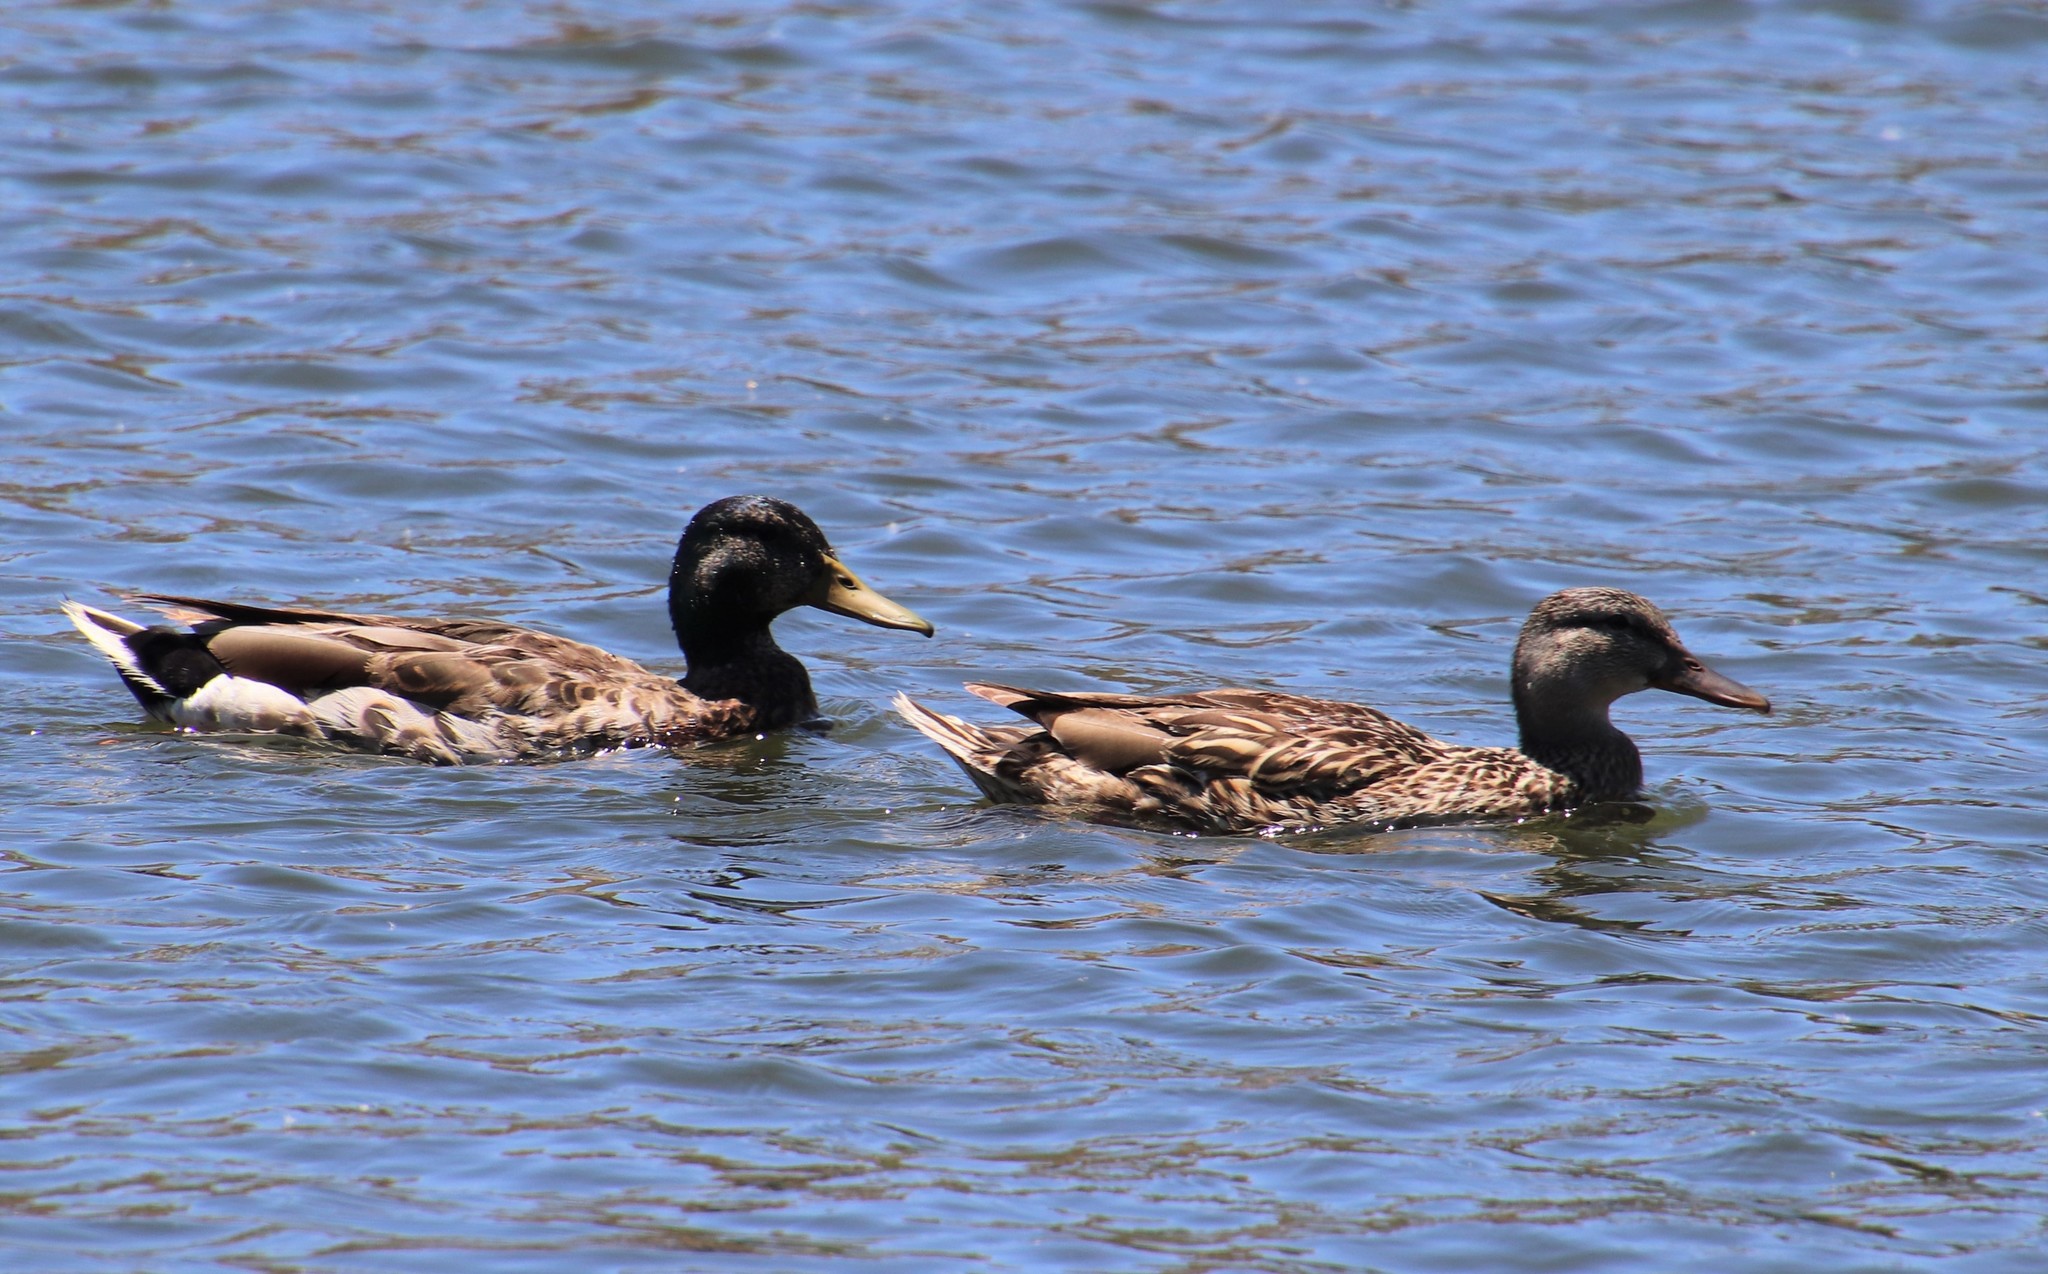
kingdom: Animalia
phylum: Chordata
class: Aves
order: Anseriformes
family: Anatidae
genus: Anas
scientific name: Anas platyrhynchos
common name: Mallard
